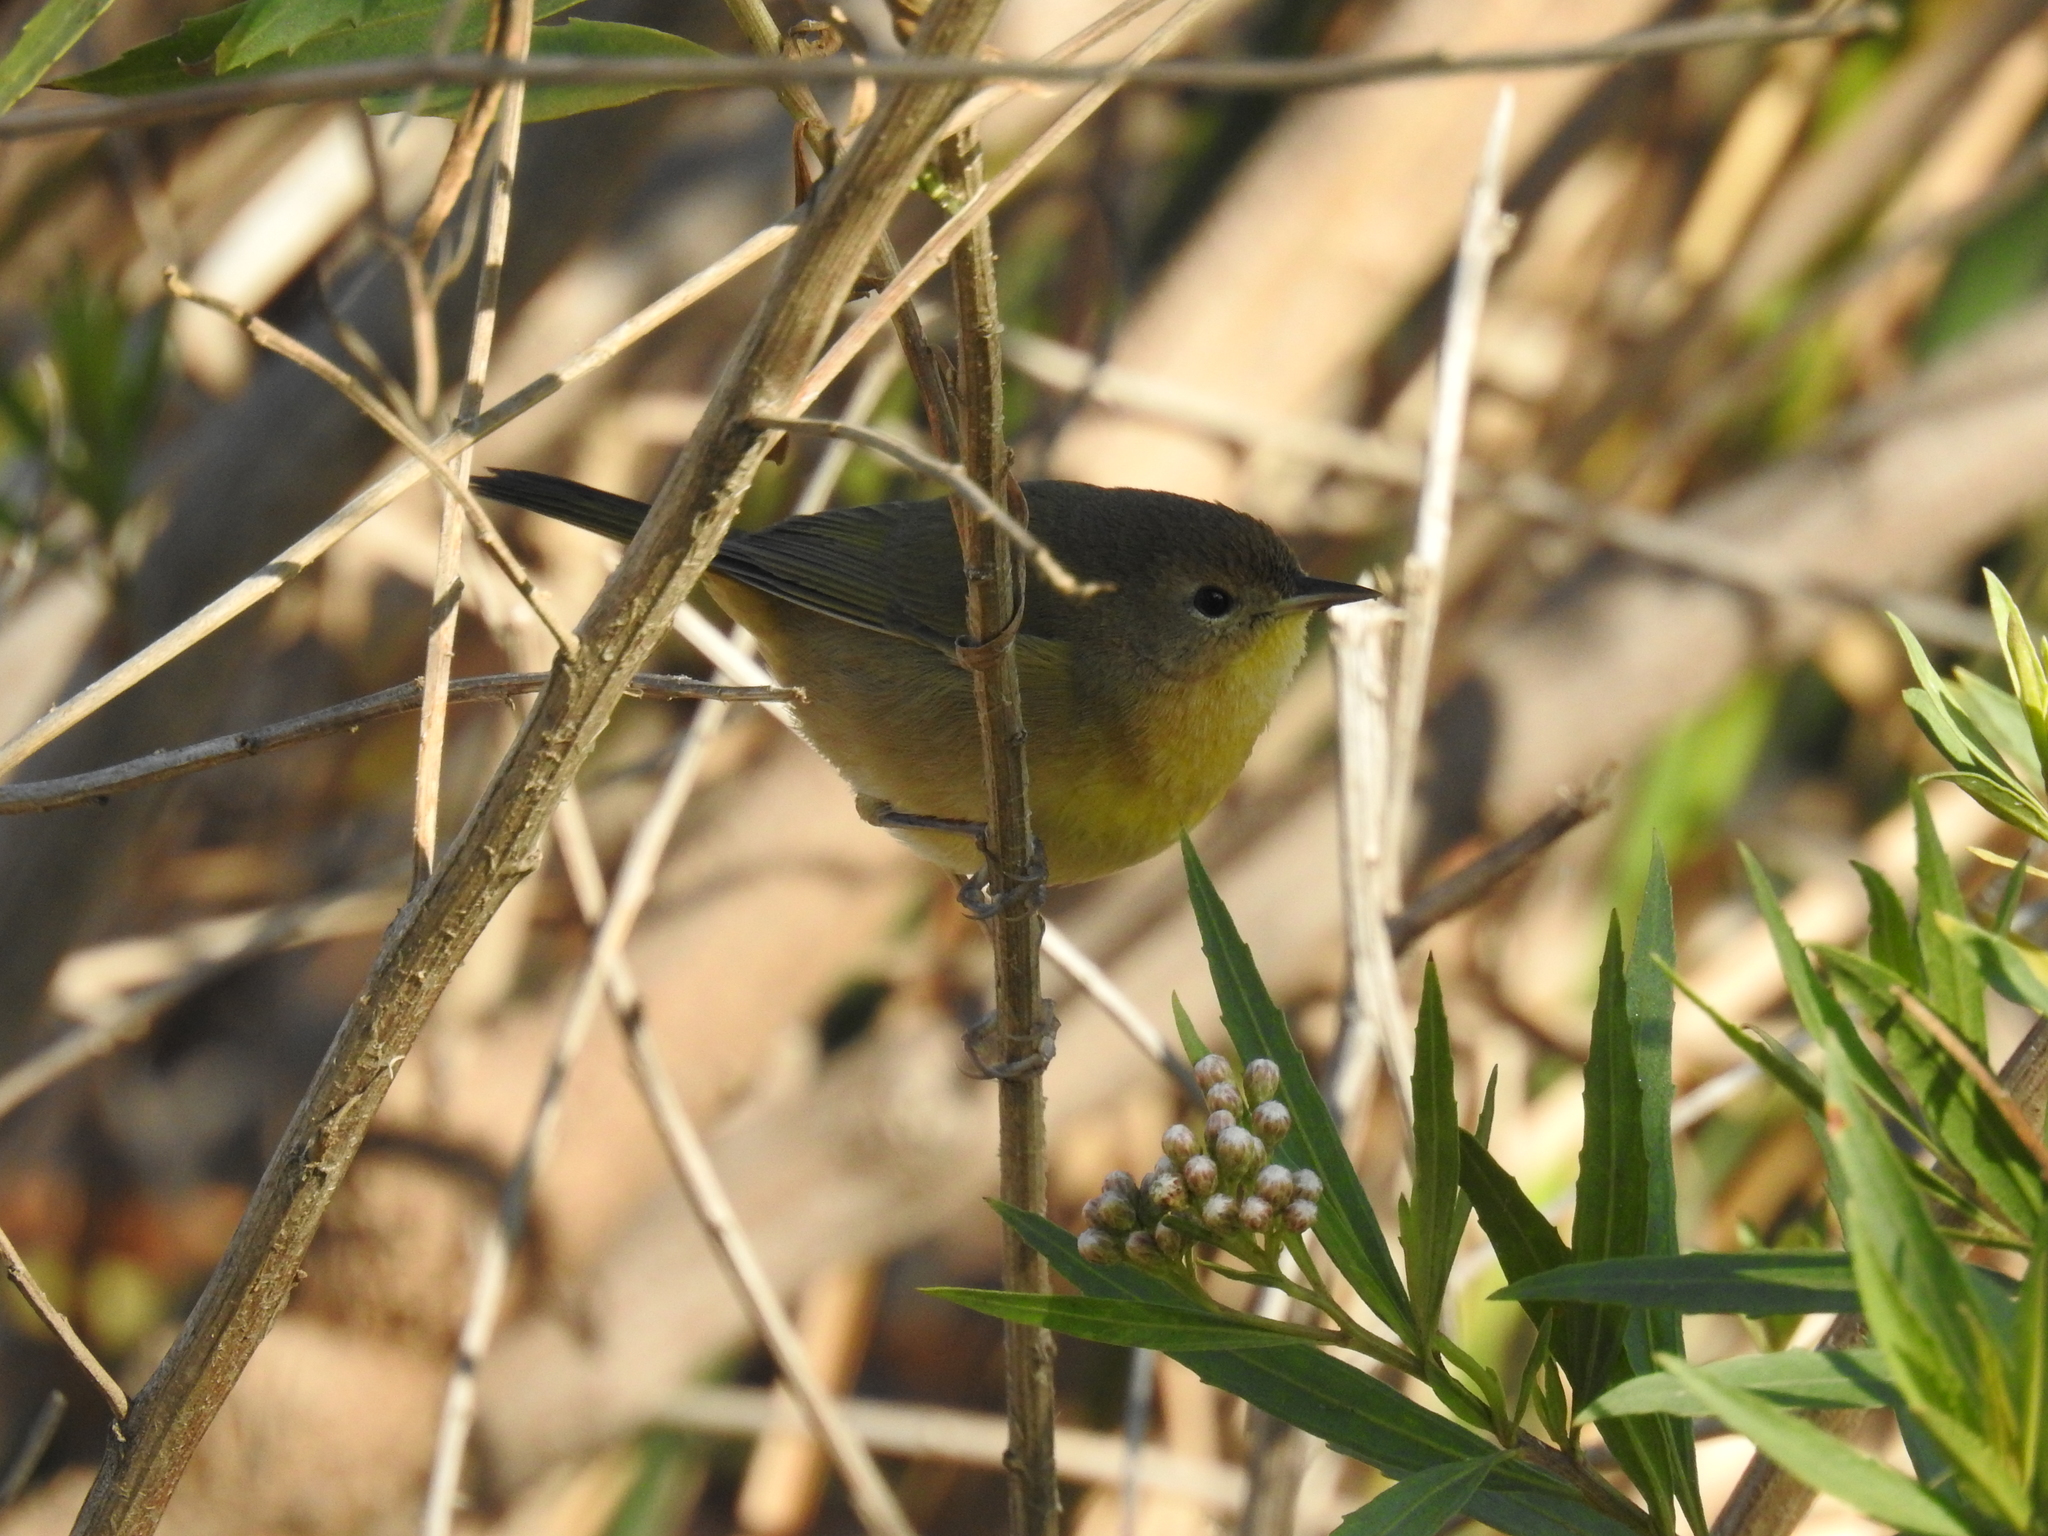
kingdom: Animalia
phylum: Chordata
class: Aves
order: Passeriformes
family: Parulidae
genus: Geothlypis
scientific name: Geothlypis trichas
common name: Common yellowthroat
